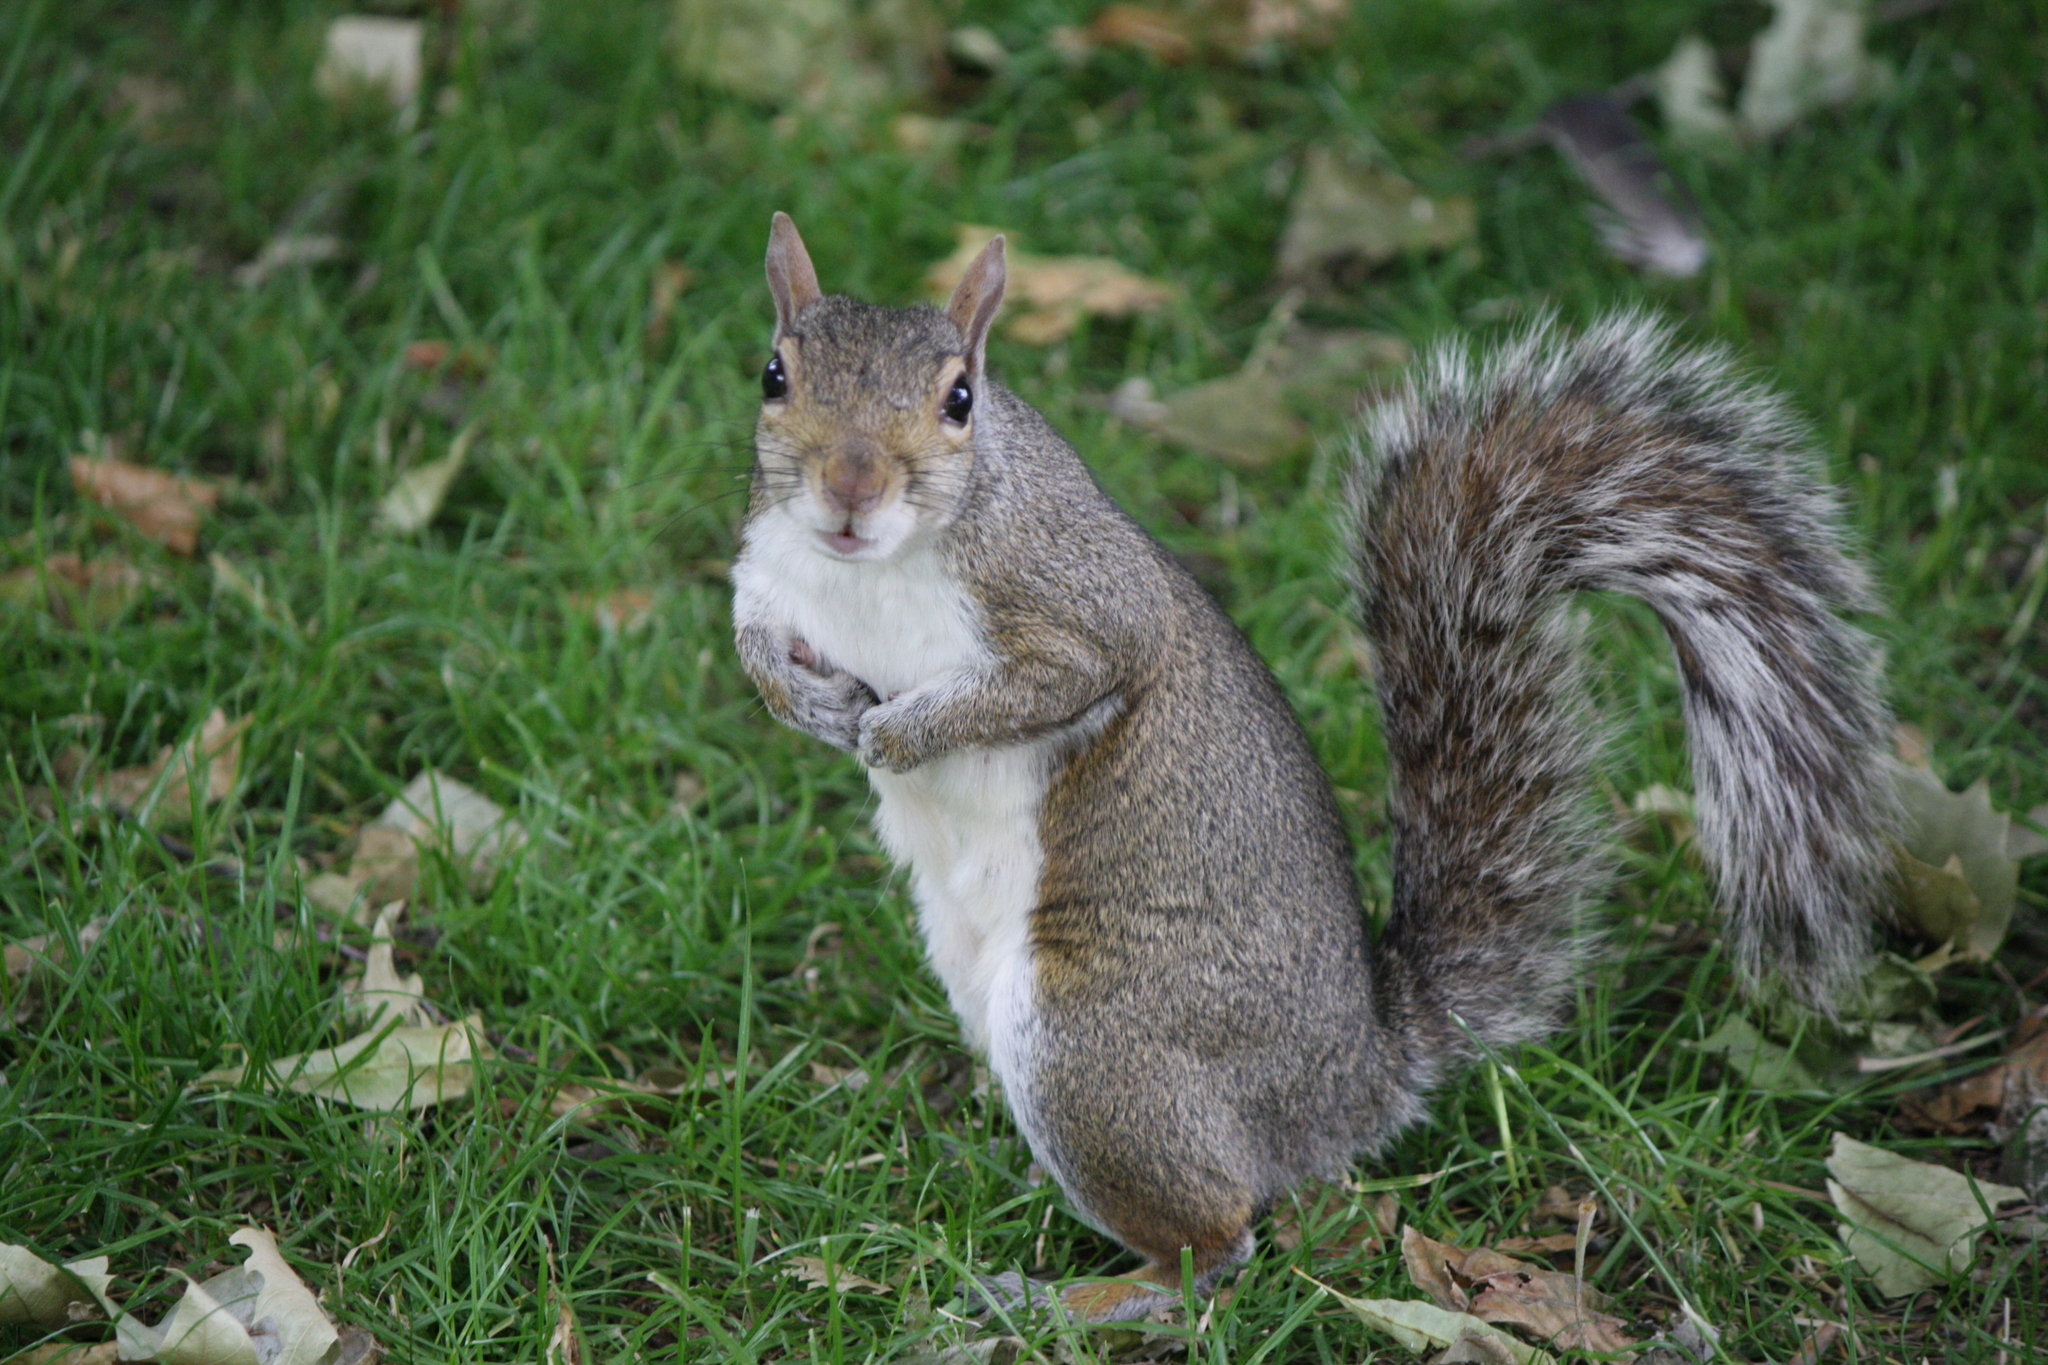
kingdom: Animalia
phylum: Chordata
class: Mammalia
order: Rodentia
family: Sciuridae
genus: Sciurus
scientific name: Sciurus carolinensis
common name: Eastern gray squirrel
